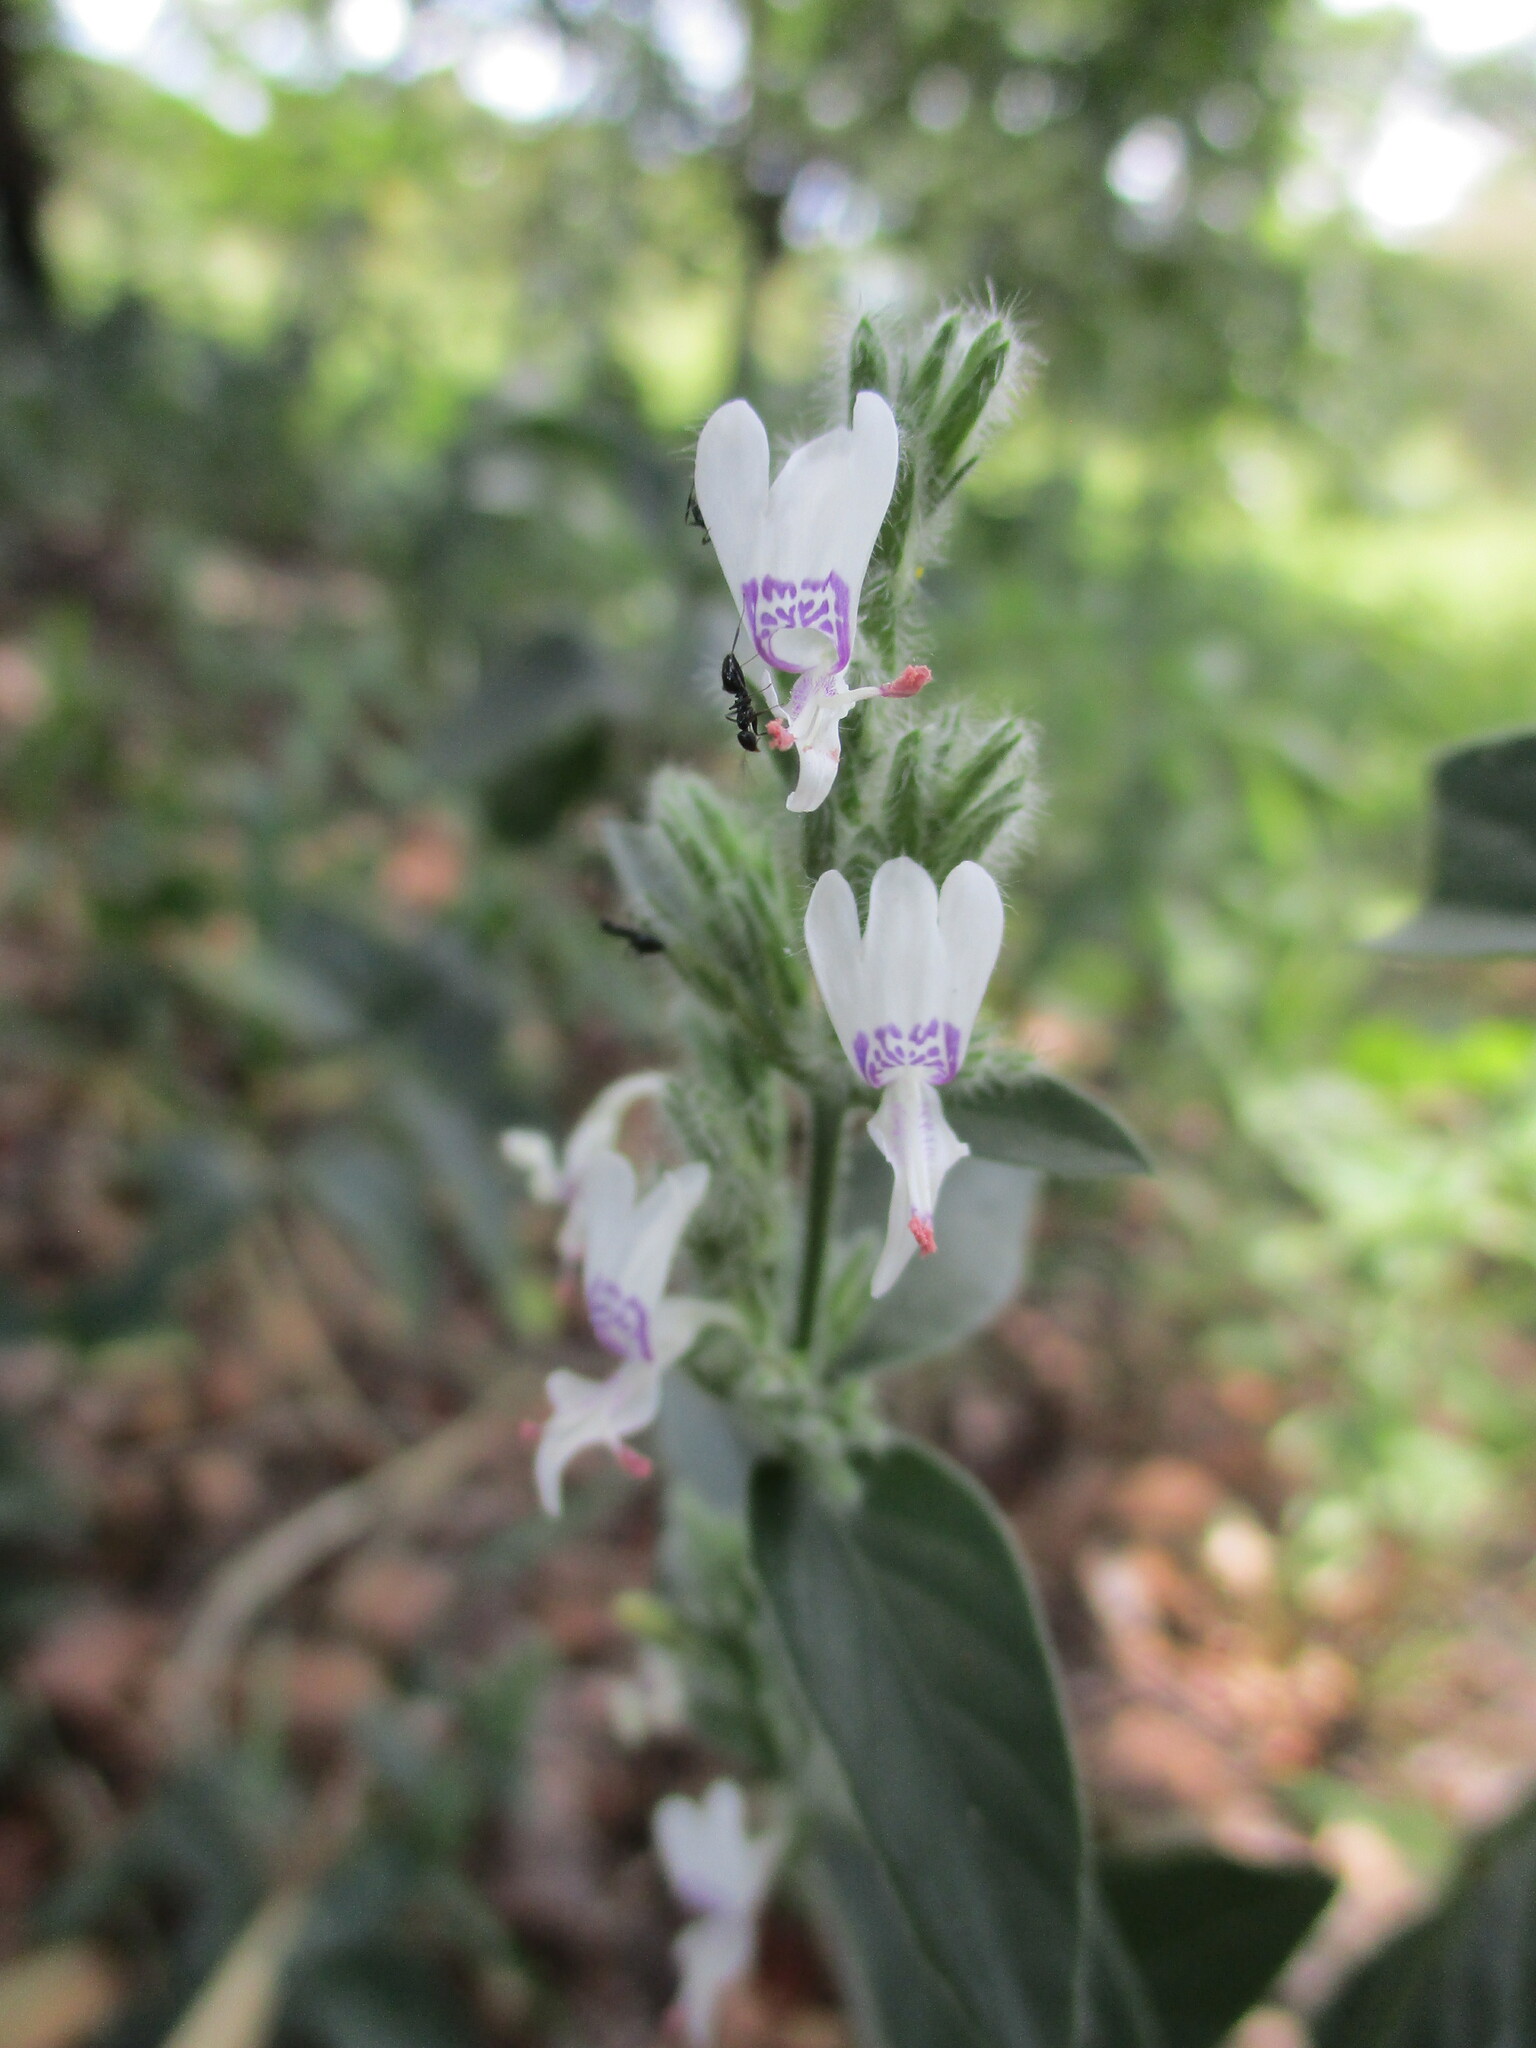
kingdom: Plantae
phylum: Tracheophyta
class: Magnoliopsida
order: Lamiales
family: Acanthaceae
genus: Hypoestes
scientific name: Hypoestes forskaolii
